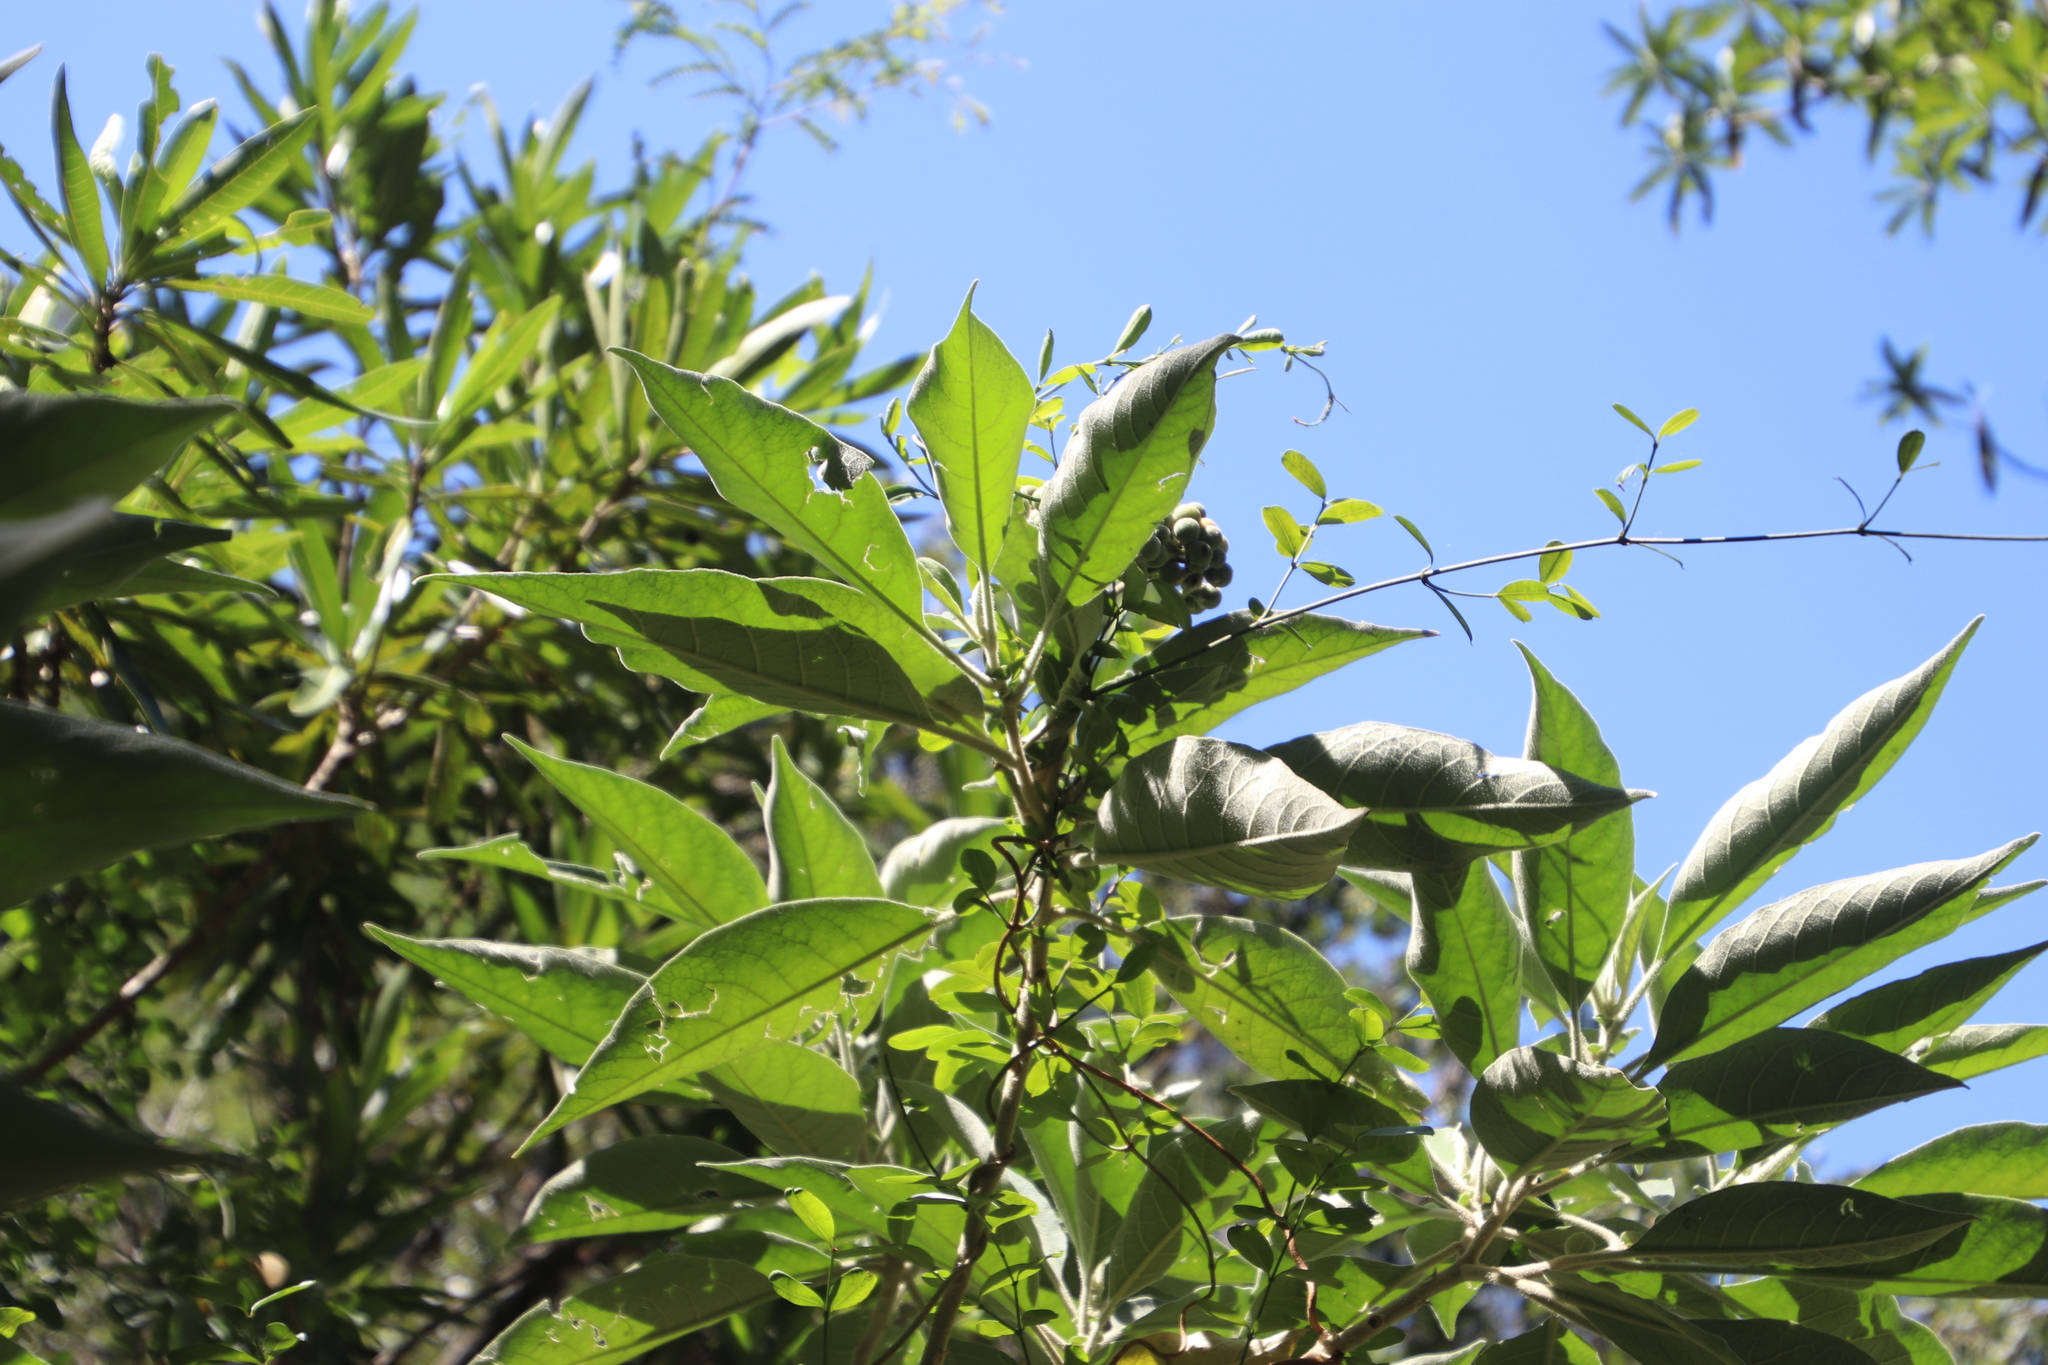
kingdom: Plantae
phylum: Tracheophyta
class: Magnoliopsida
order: Solanales
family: Solanaceae
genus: Solanum
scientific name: Solanum mauritianum
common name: Earleaf nightshade
